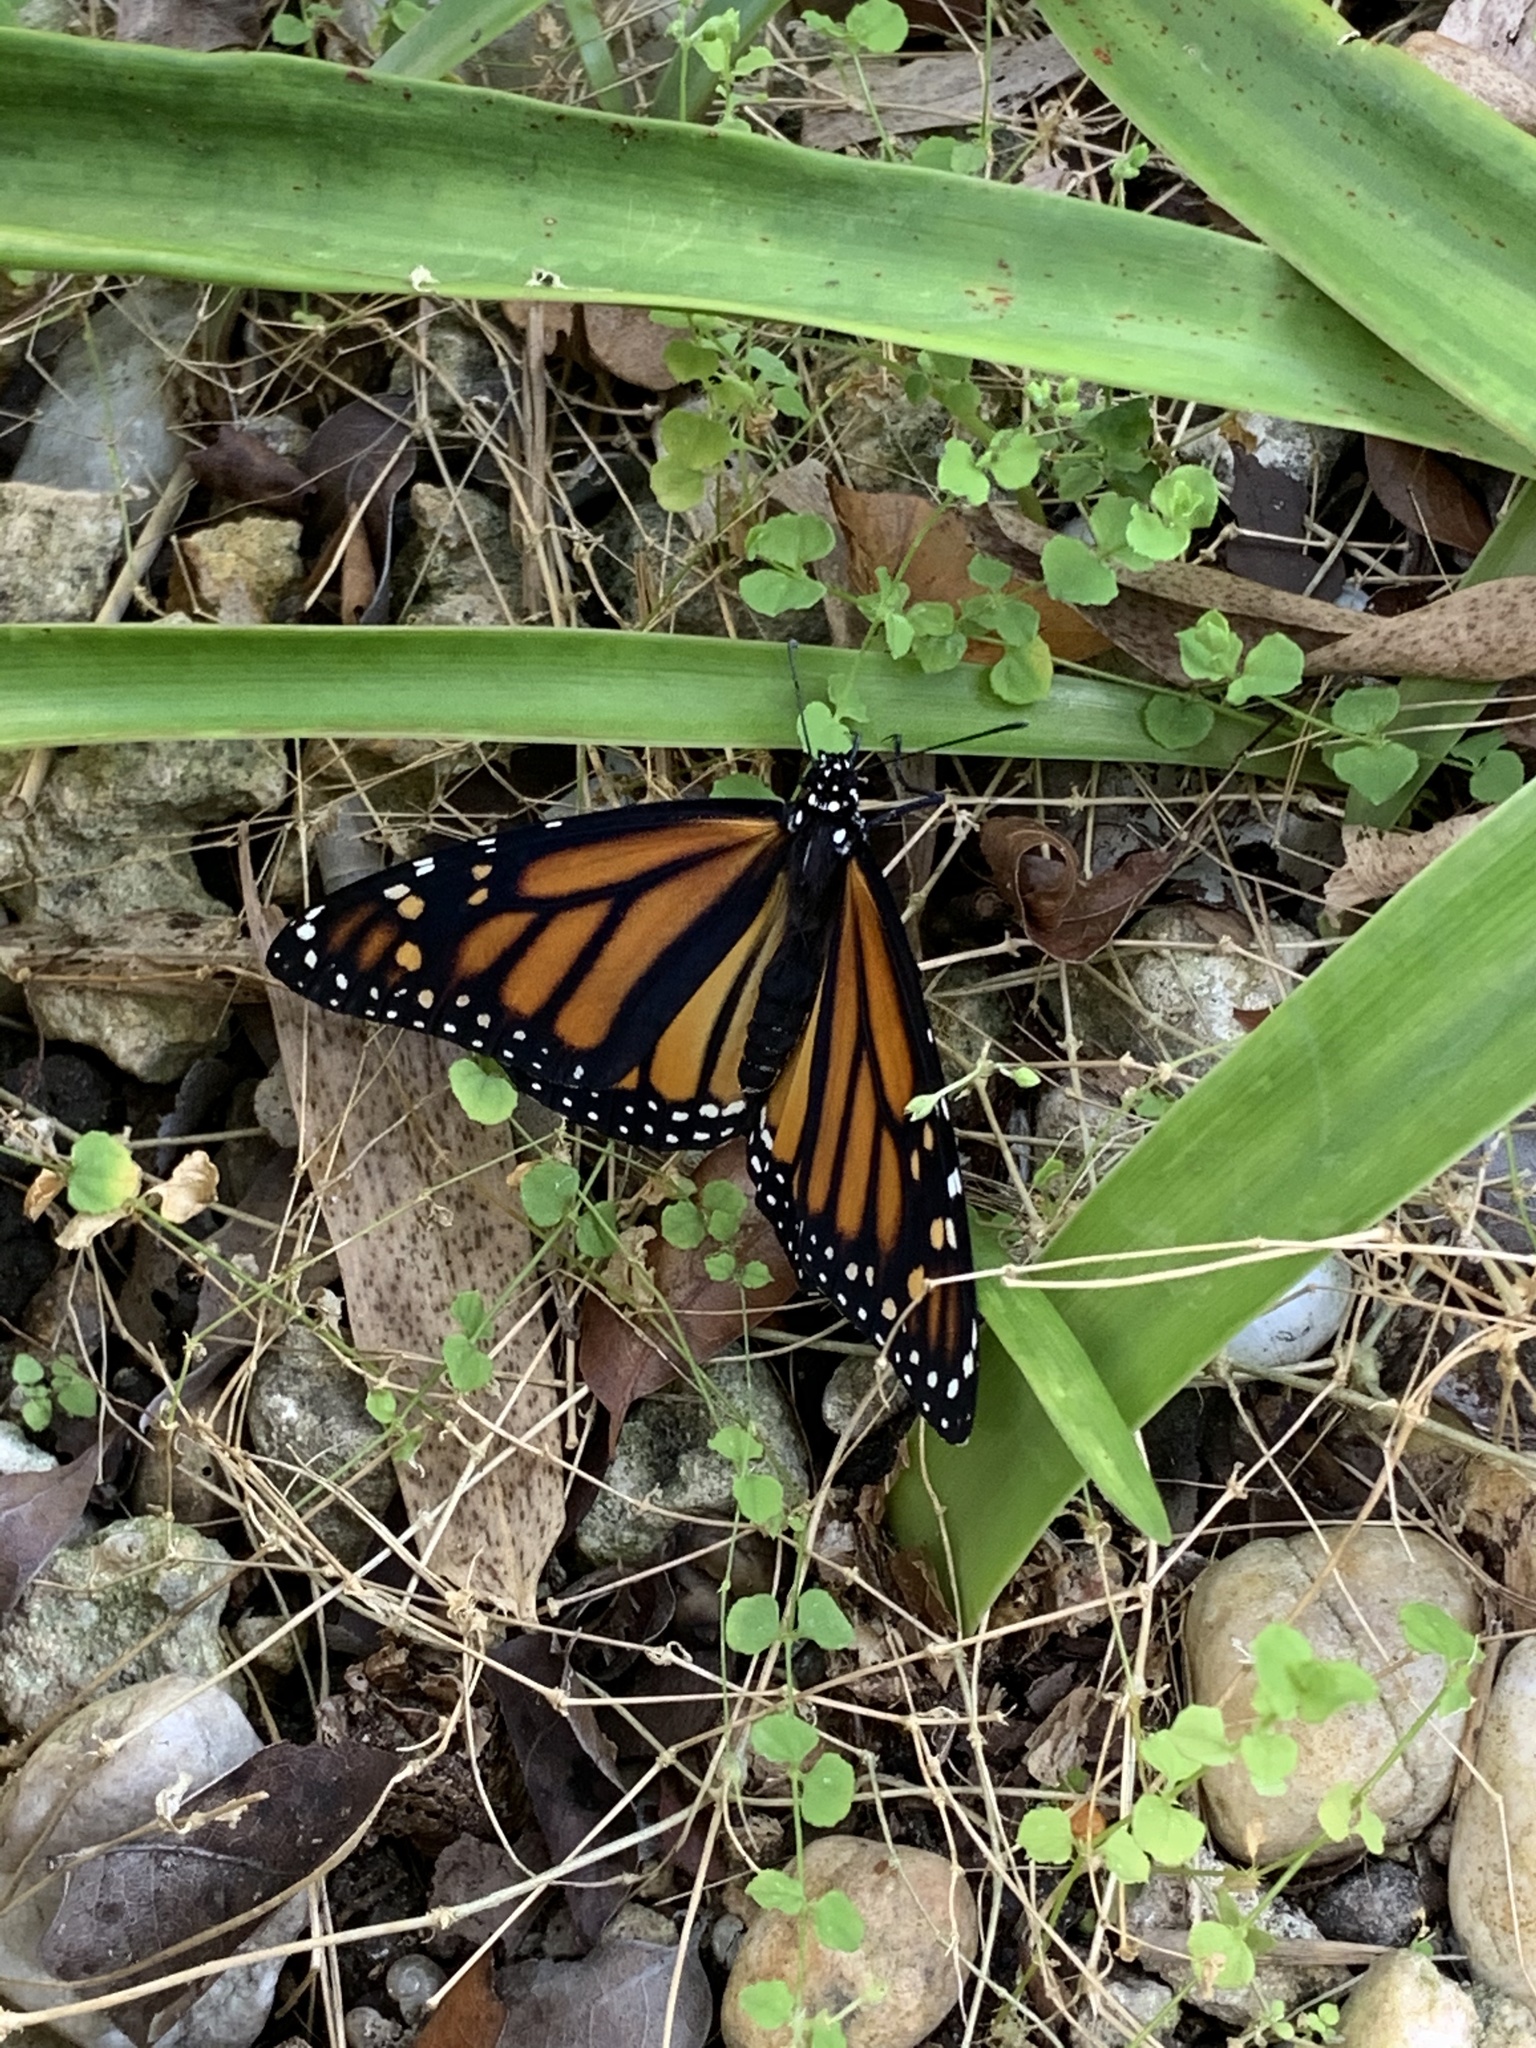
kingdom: Animalia
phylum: Arthropoda
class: Insecta
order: Lepidoptera
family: Nymphalidae
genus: Danaus
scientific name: Danaus plexippus
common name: Monarch
